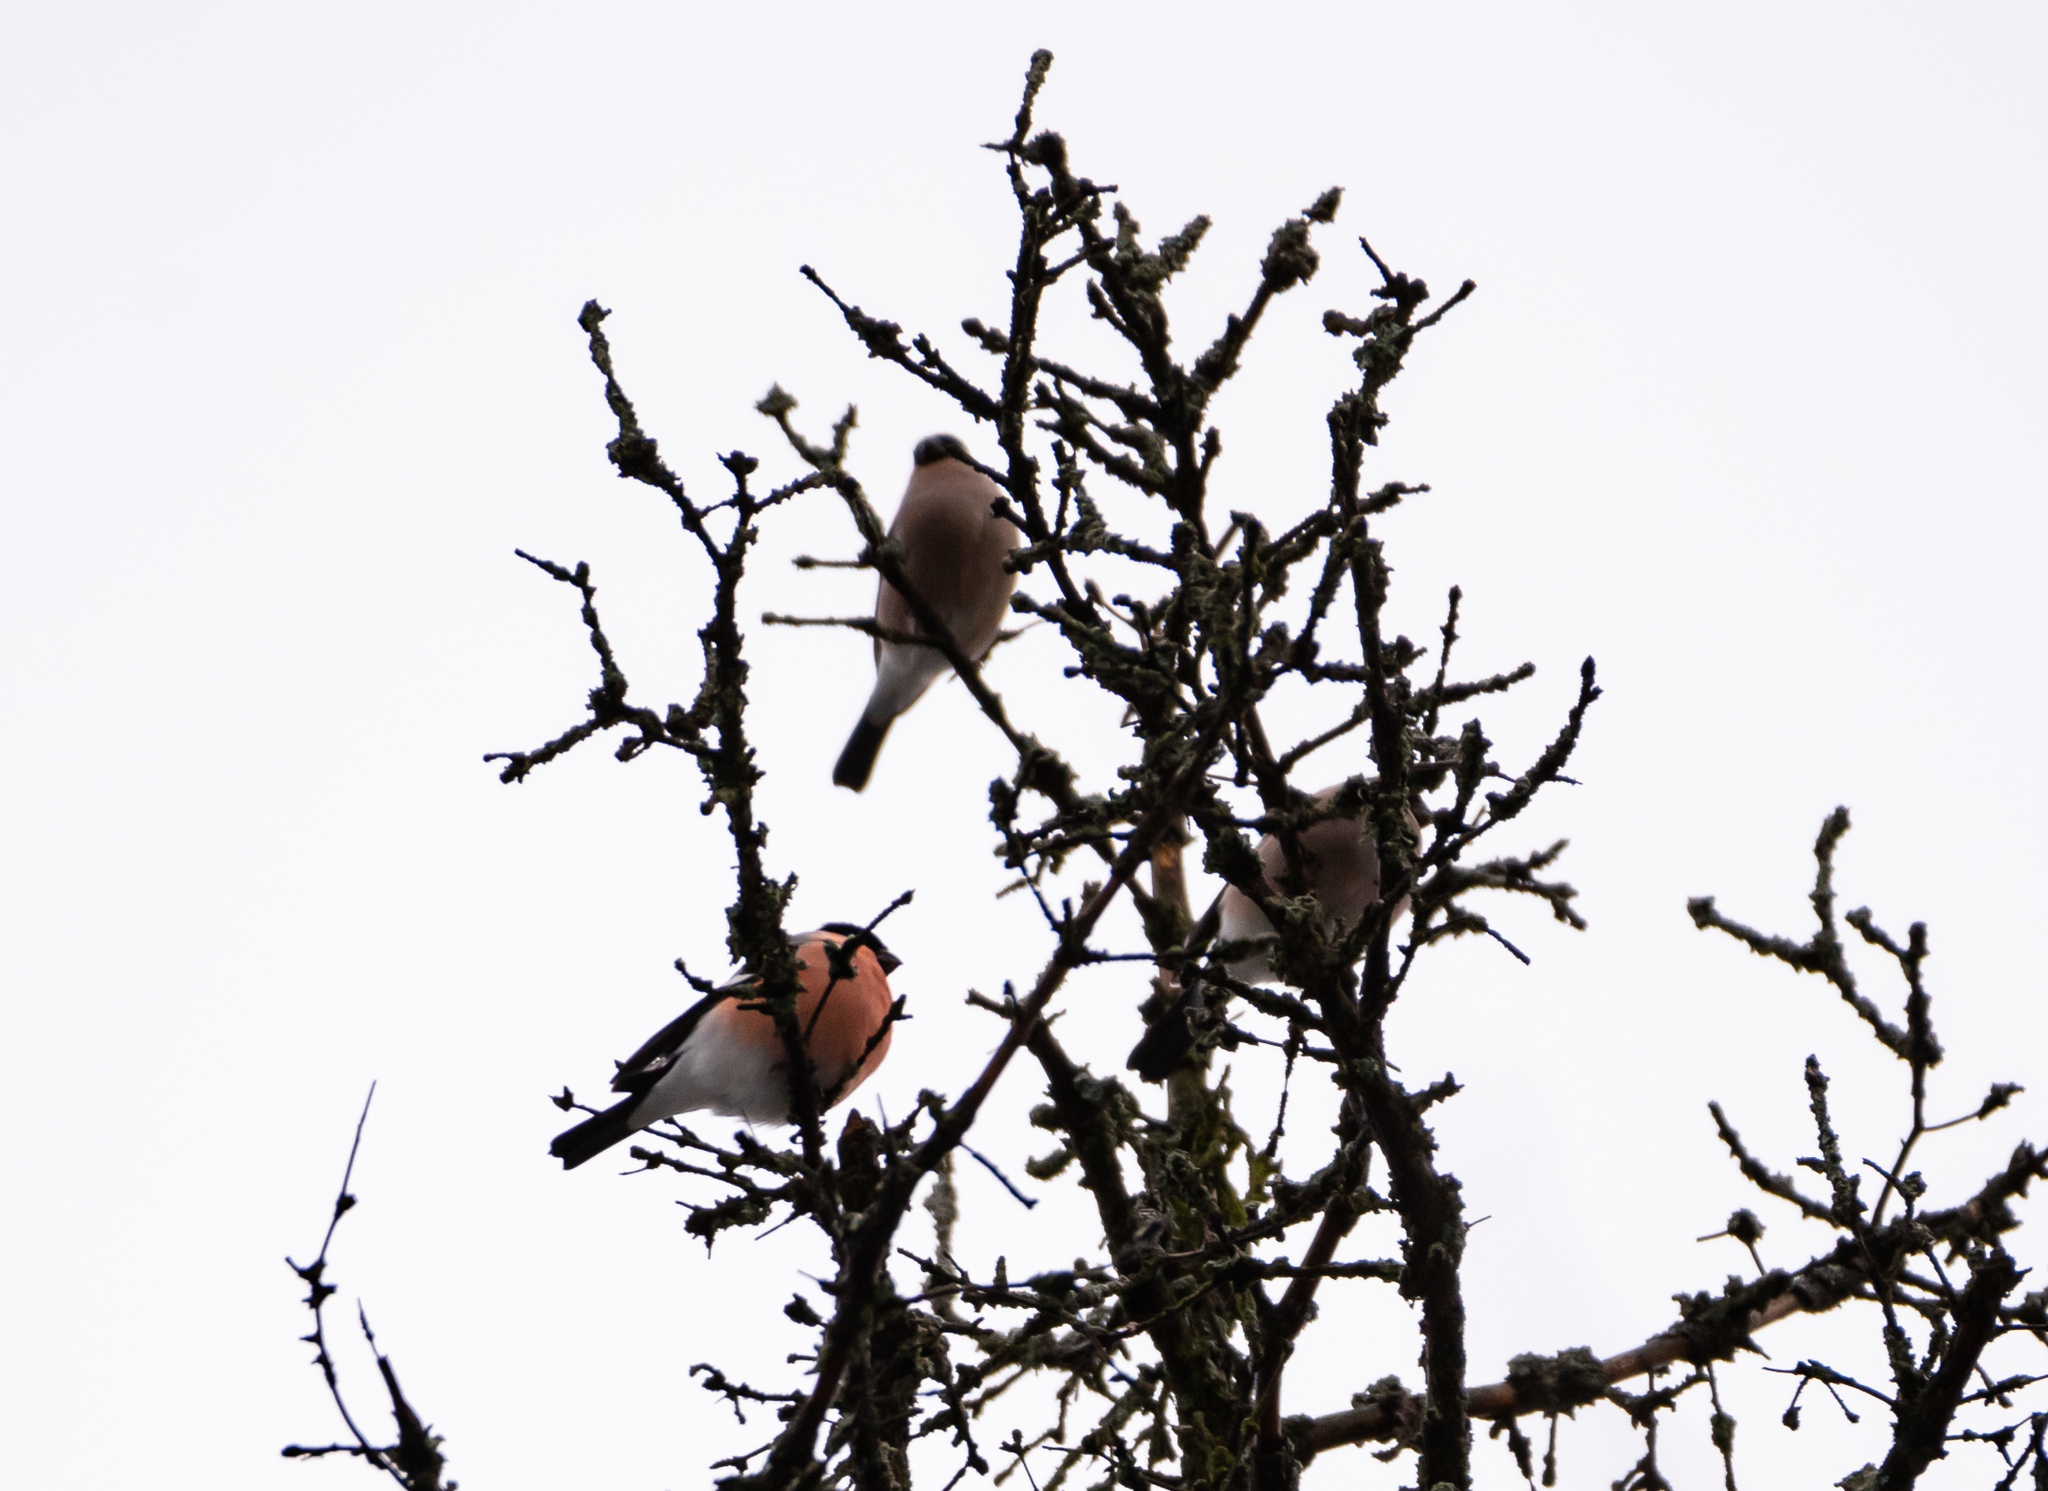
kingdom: Animalia
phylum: Chordata
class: Aves
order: Passeriformes
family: Fringillidae
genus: Pyrrhula
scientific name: Pyrrhula pyrrhula
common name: Eurasian bullfinch
